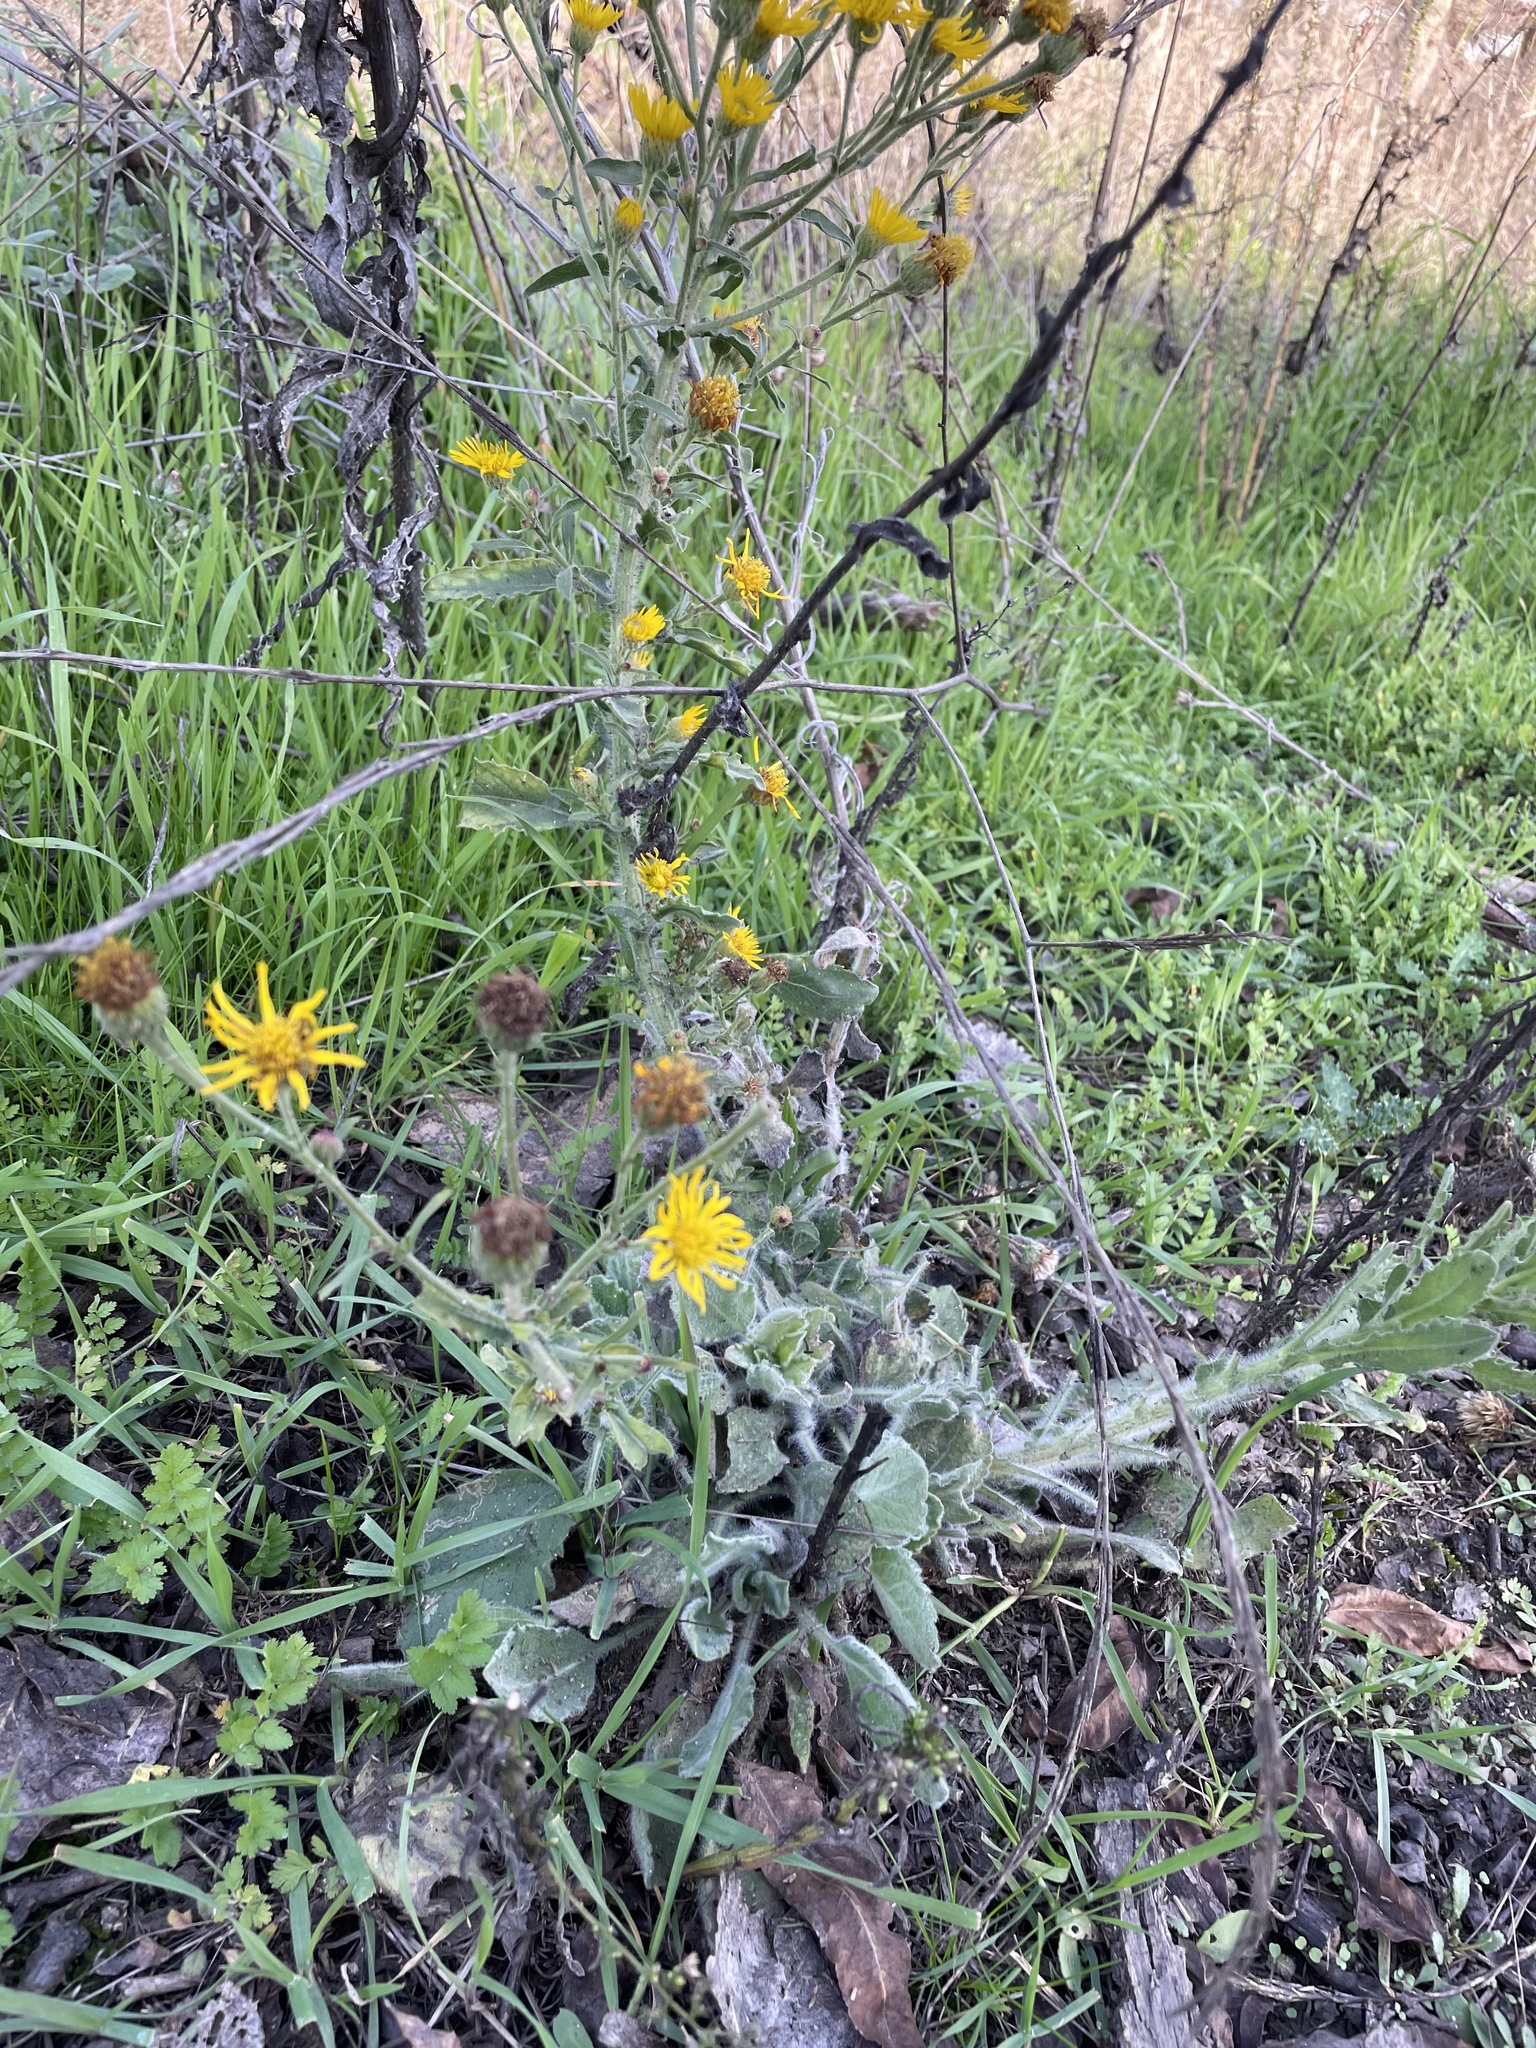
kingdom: Plantae
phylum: Tracheophyta
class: Magnoliopsida
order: Asterales
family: Asteraceae
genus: Heterotheca
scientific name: Heterotheca grandiflora
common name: Telegraphweed
